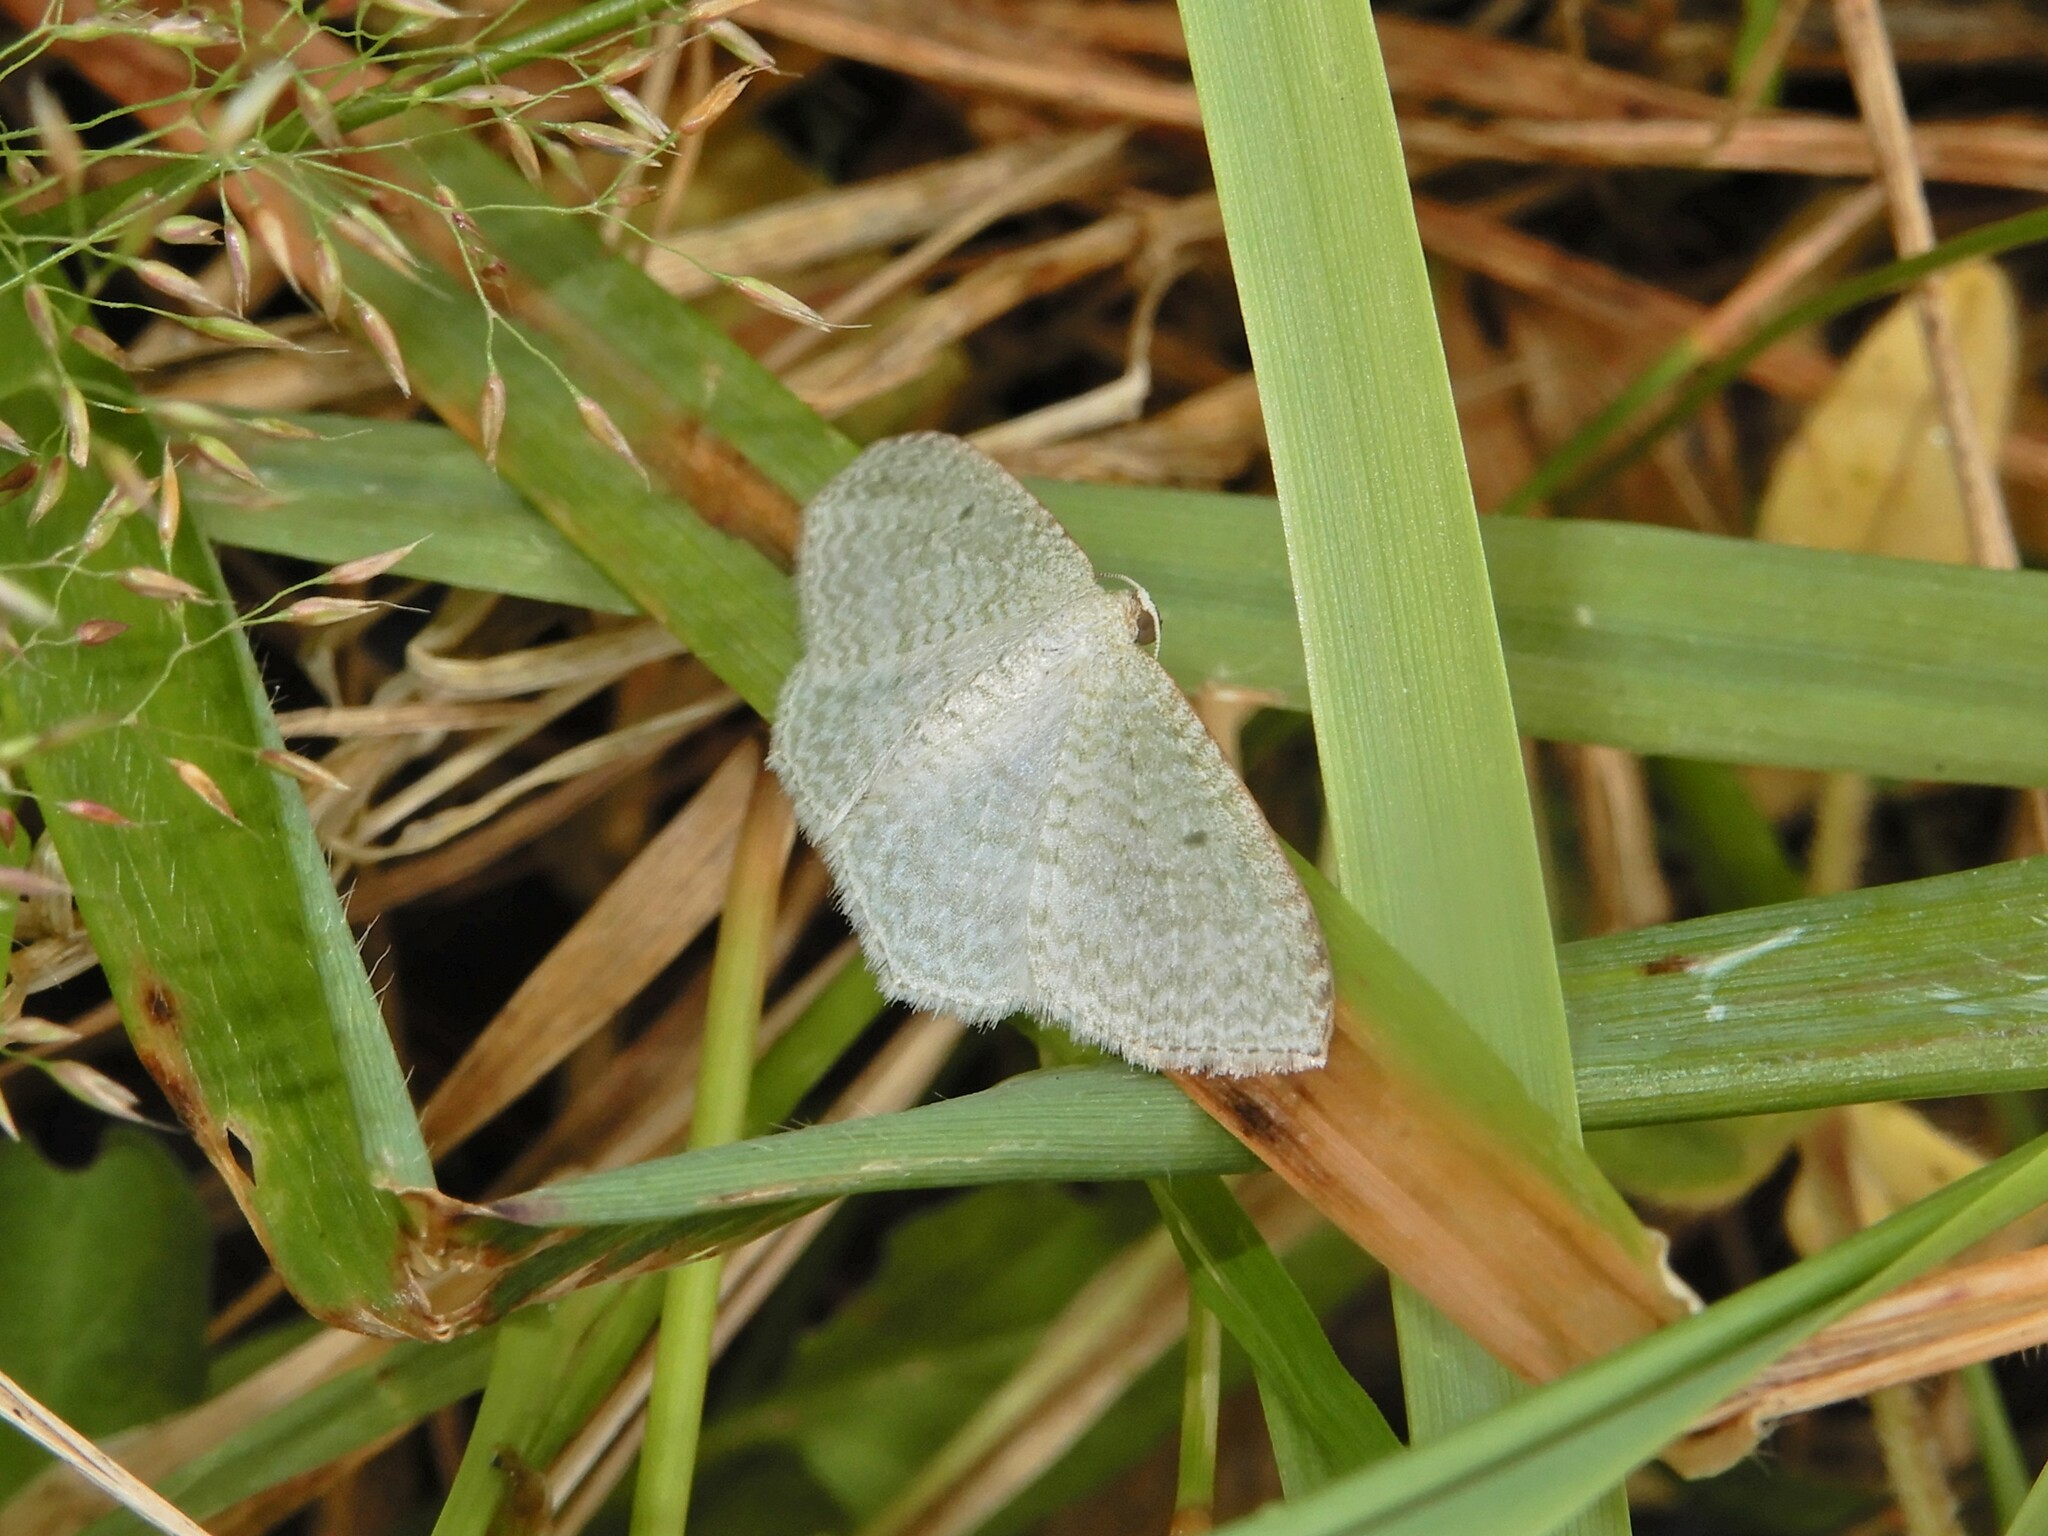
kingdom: Animalia
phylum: Arthropoda
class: Insecta
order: Lepidoptera
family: Geometridae
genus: Poecilasthena
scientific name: Poecilasthena pulchraria
